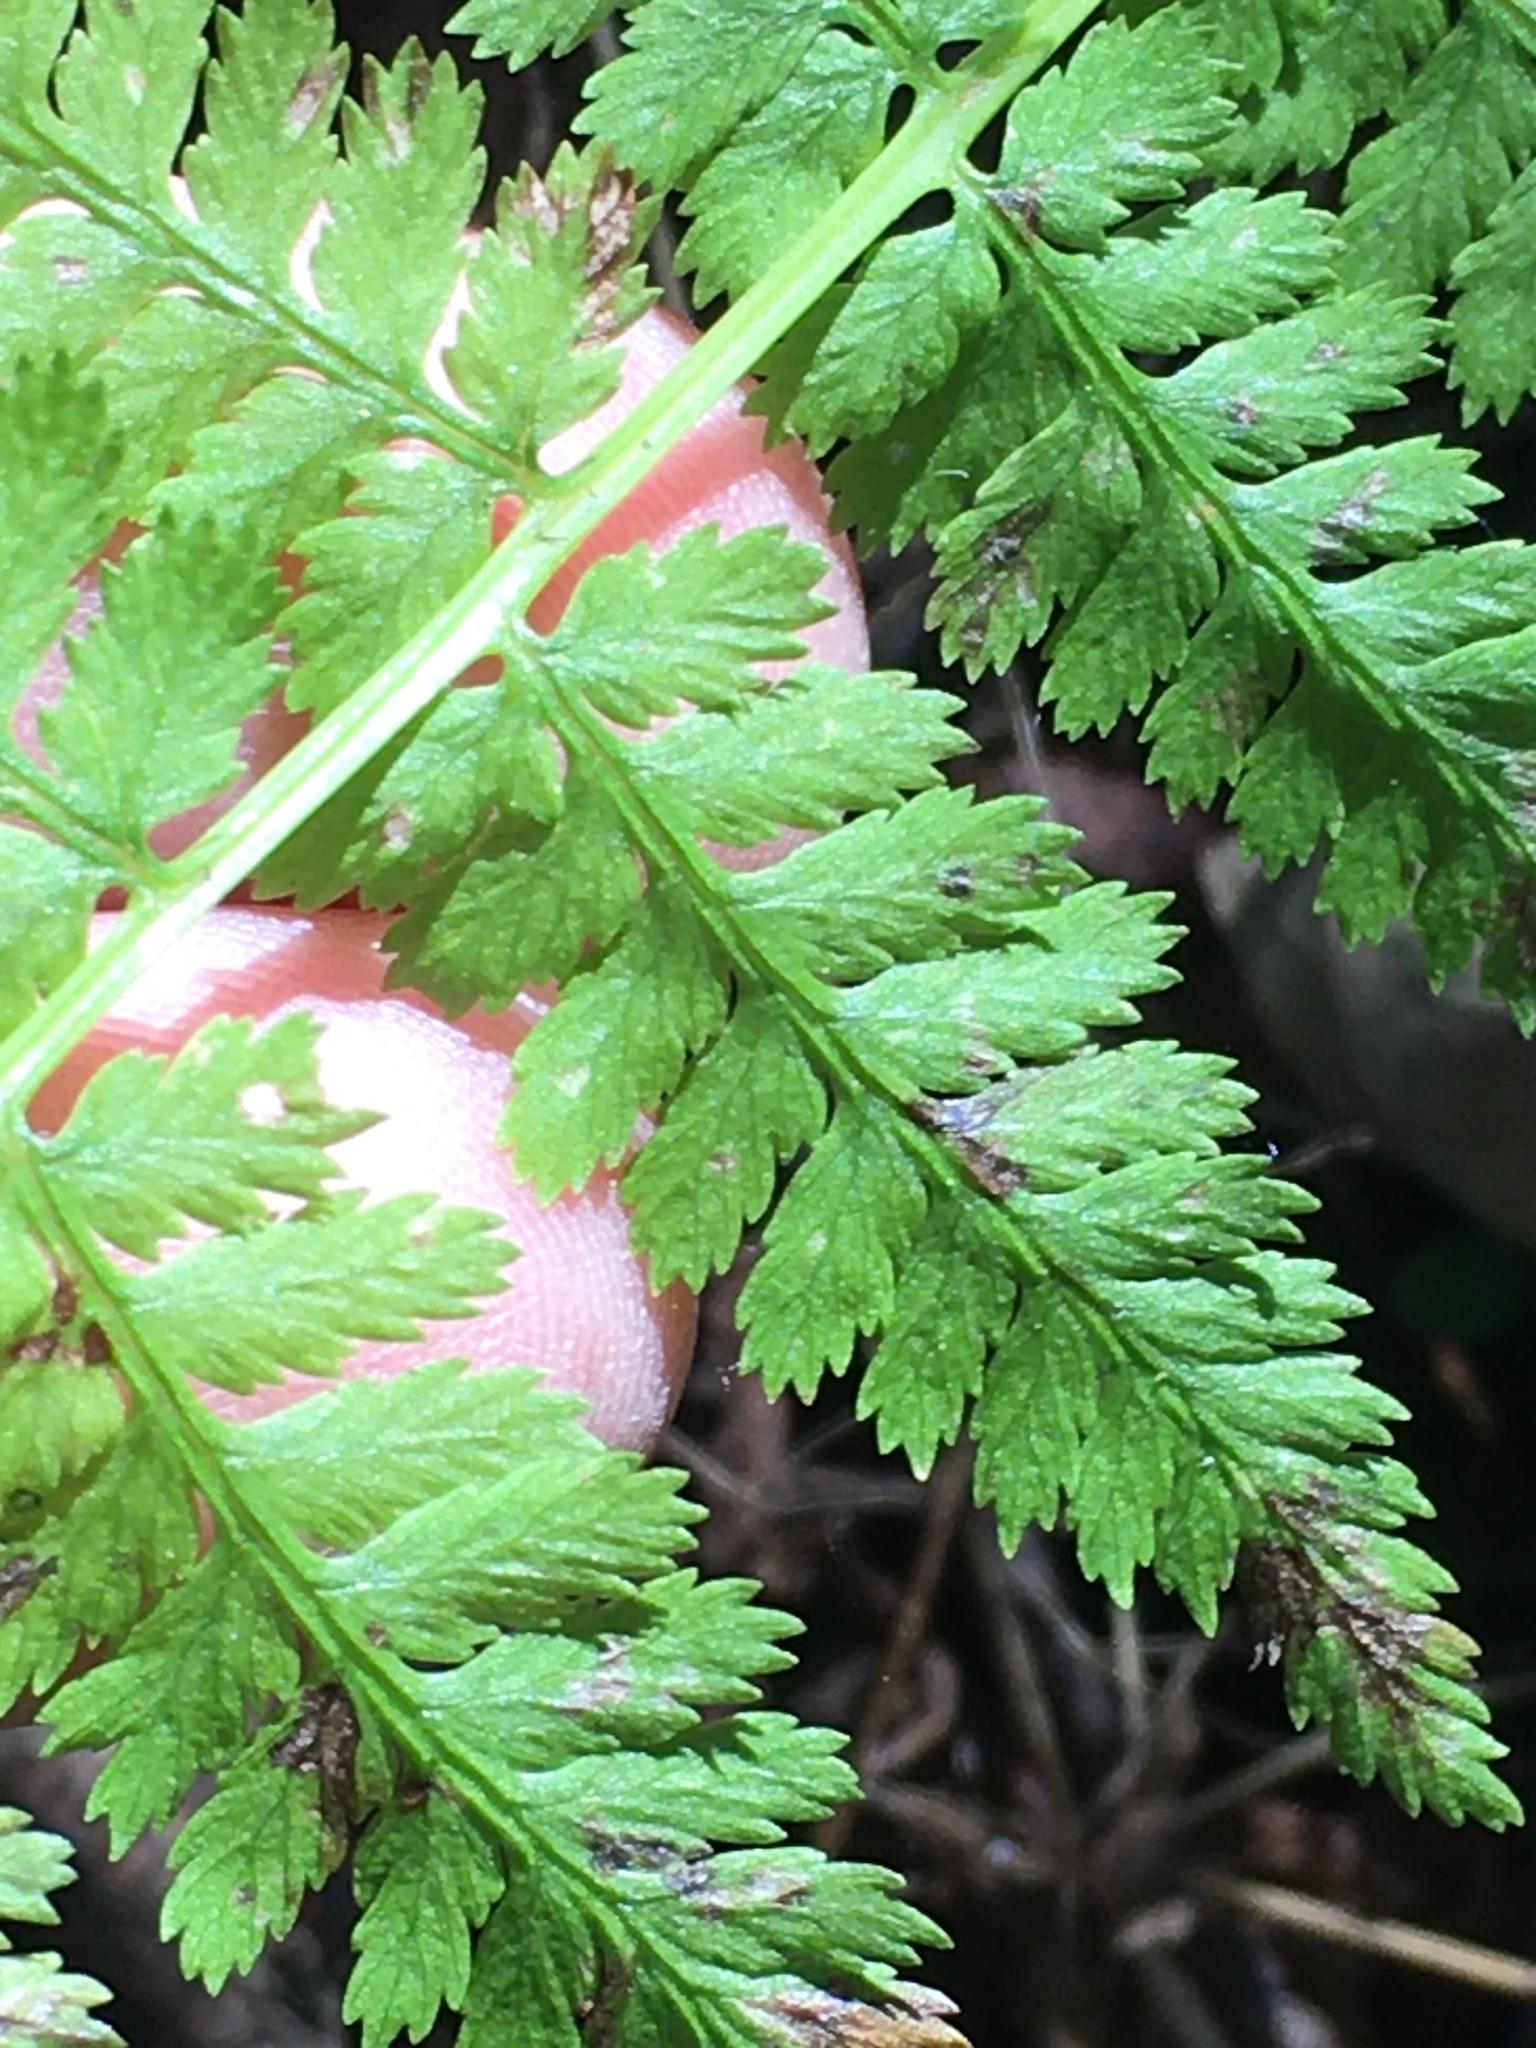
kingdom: Plantae
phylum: Tracheophyta
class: Polypodiopsida
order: Polypodiales
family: Athyriaceae
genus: Athyrium
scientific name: Athyrium asplenioides
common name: Southern lady fern
